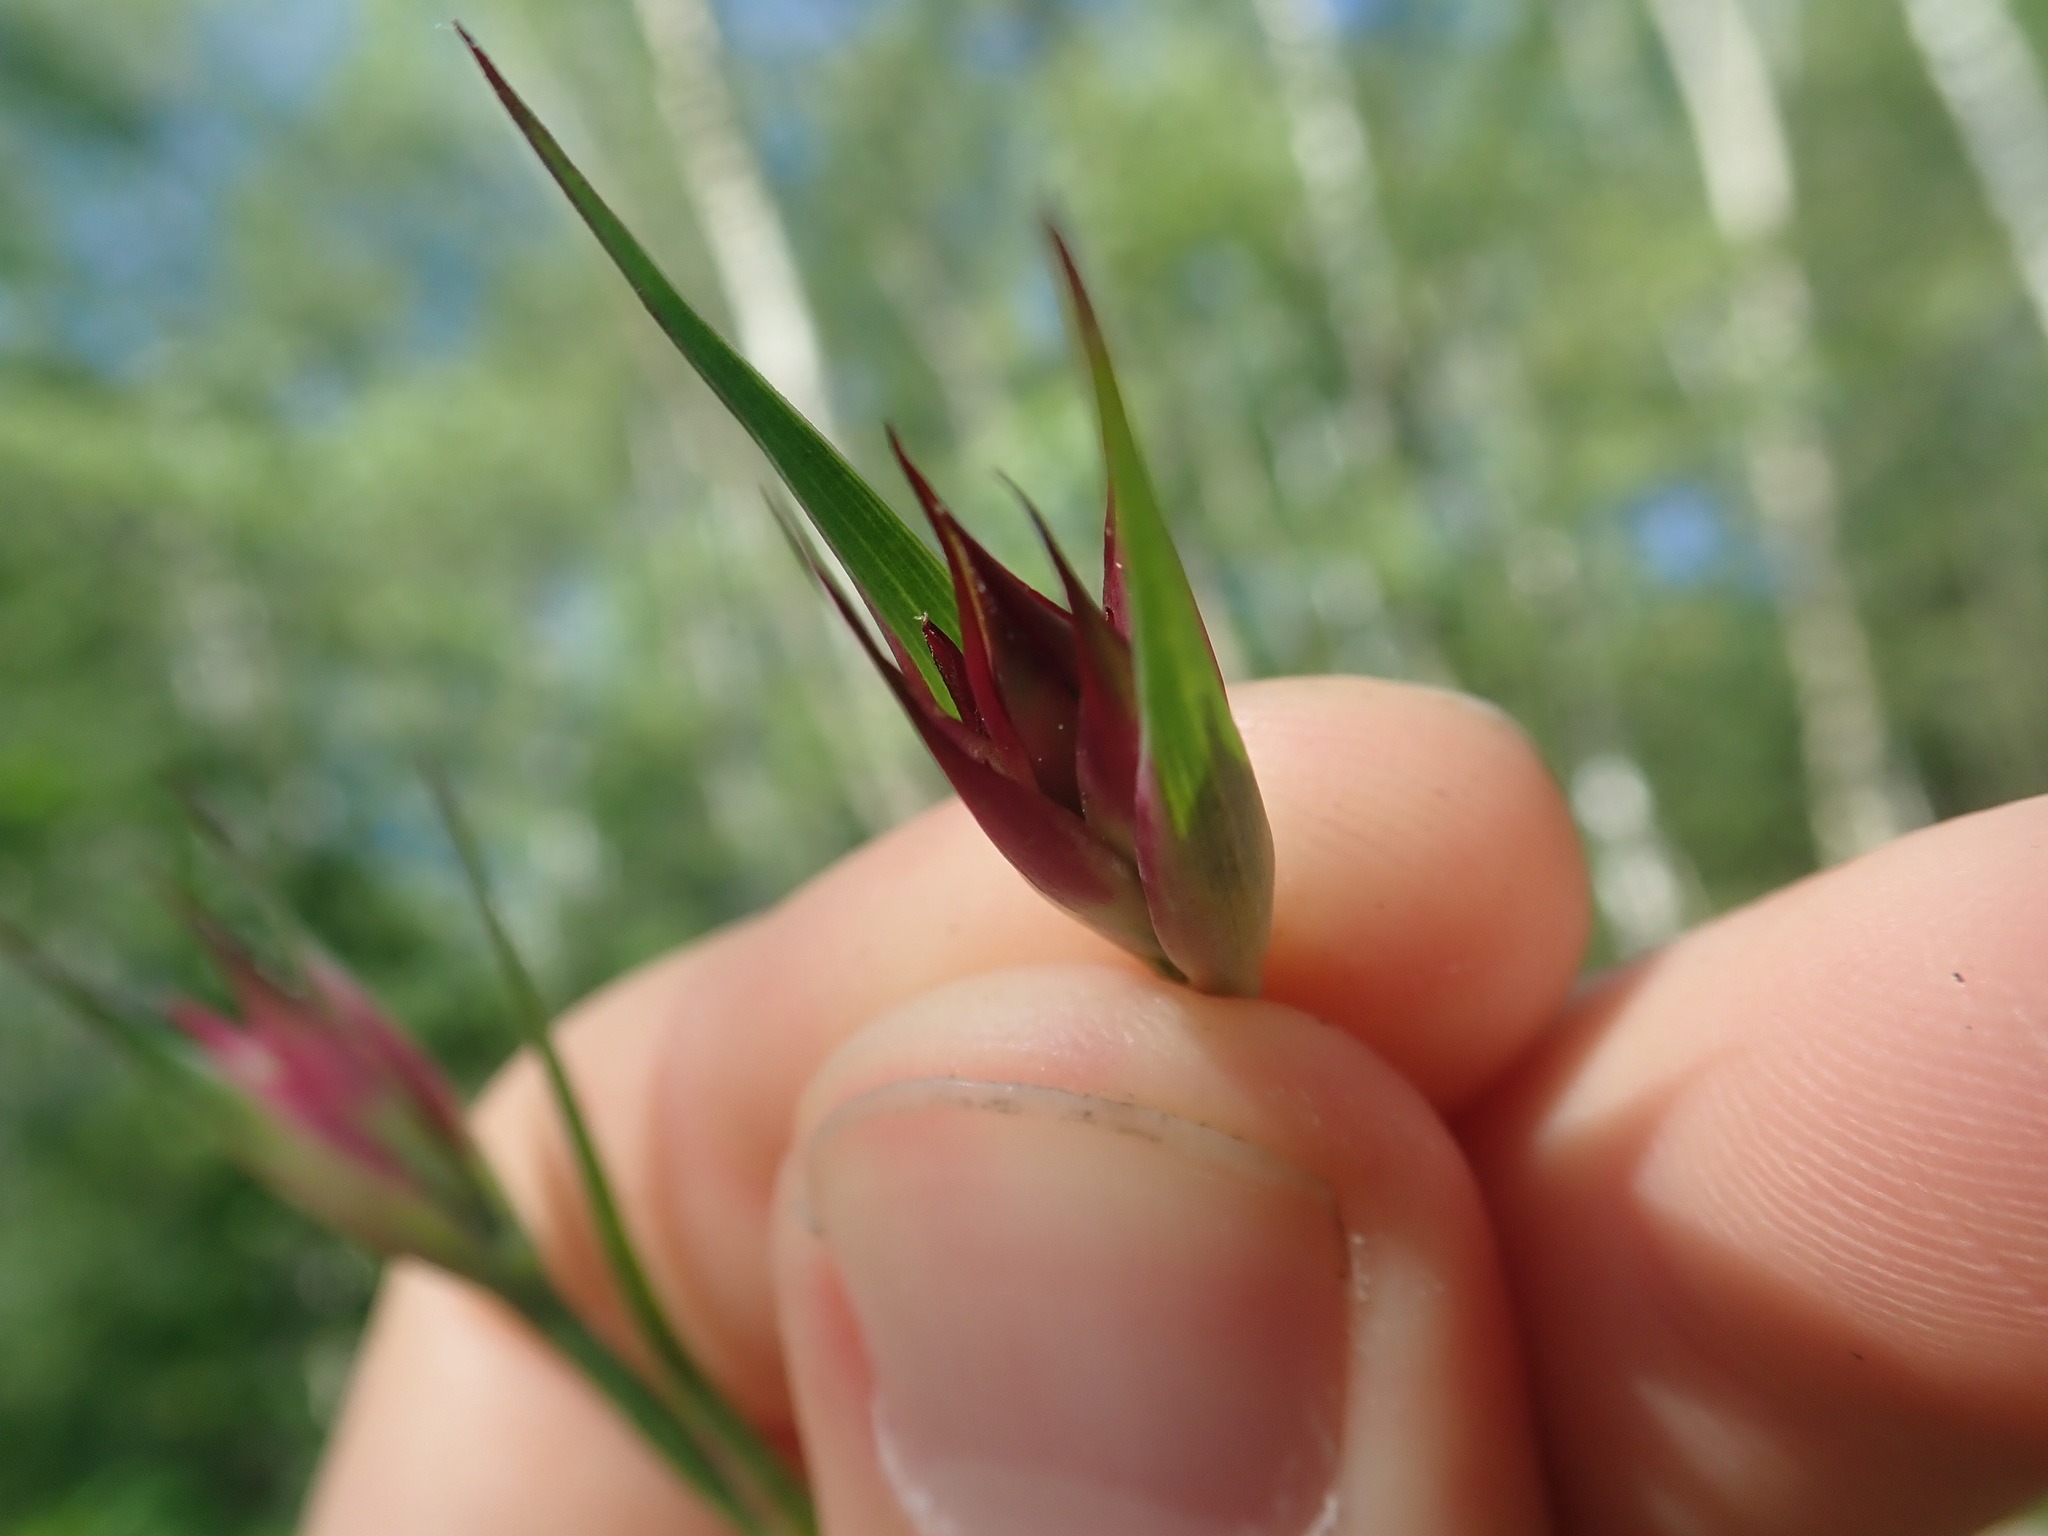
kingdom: Plantae
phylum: Tracheophyta
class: Magnoliopsida
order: Caryophyllales
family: Caryophyllaceae
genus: Dianthus
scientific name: Dianthus giganteus
